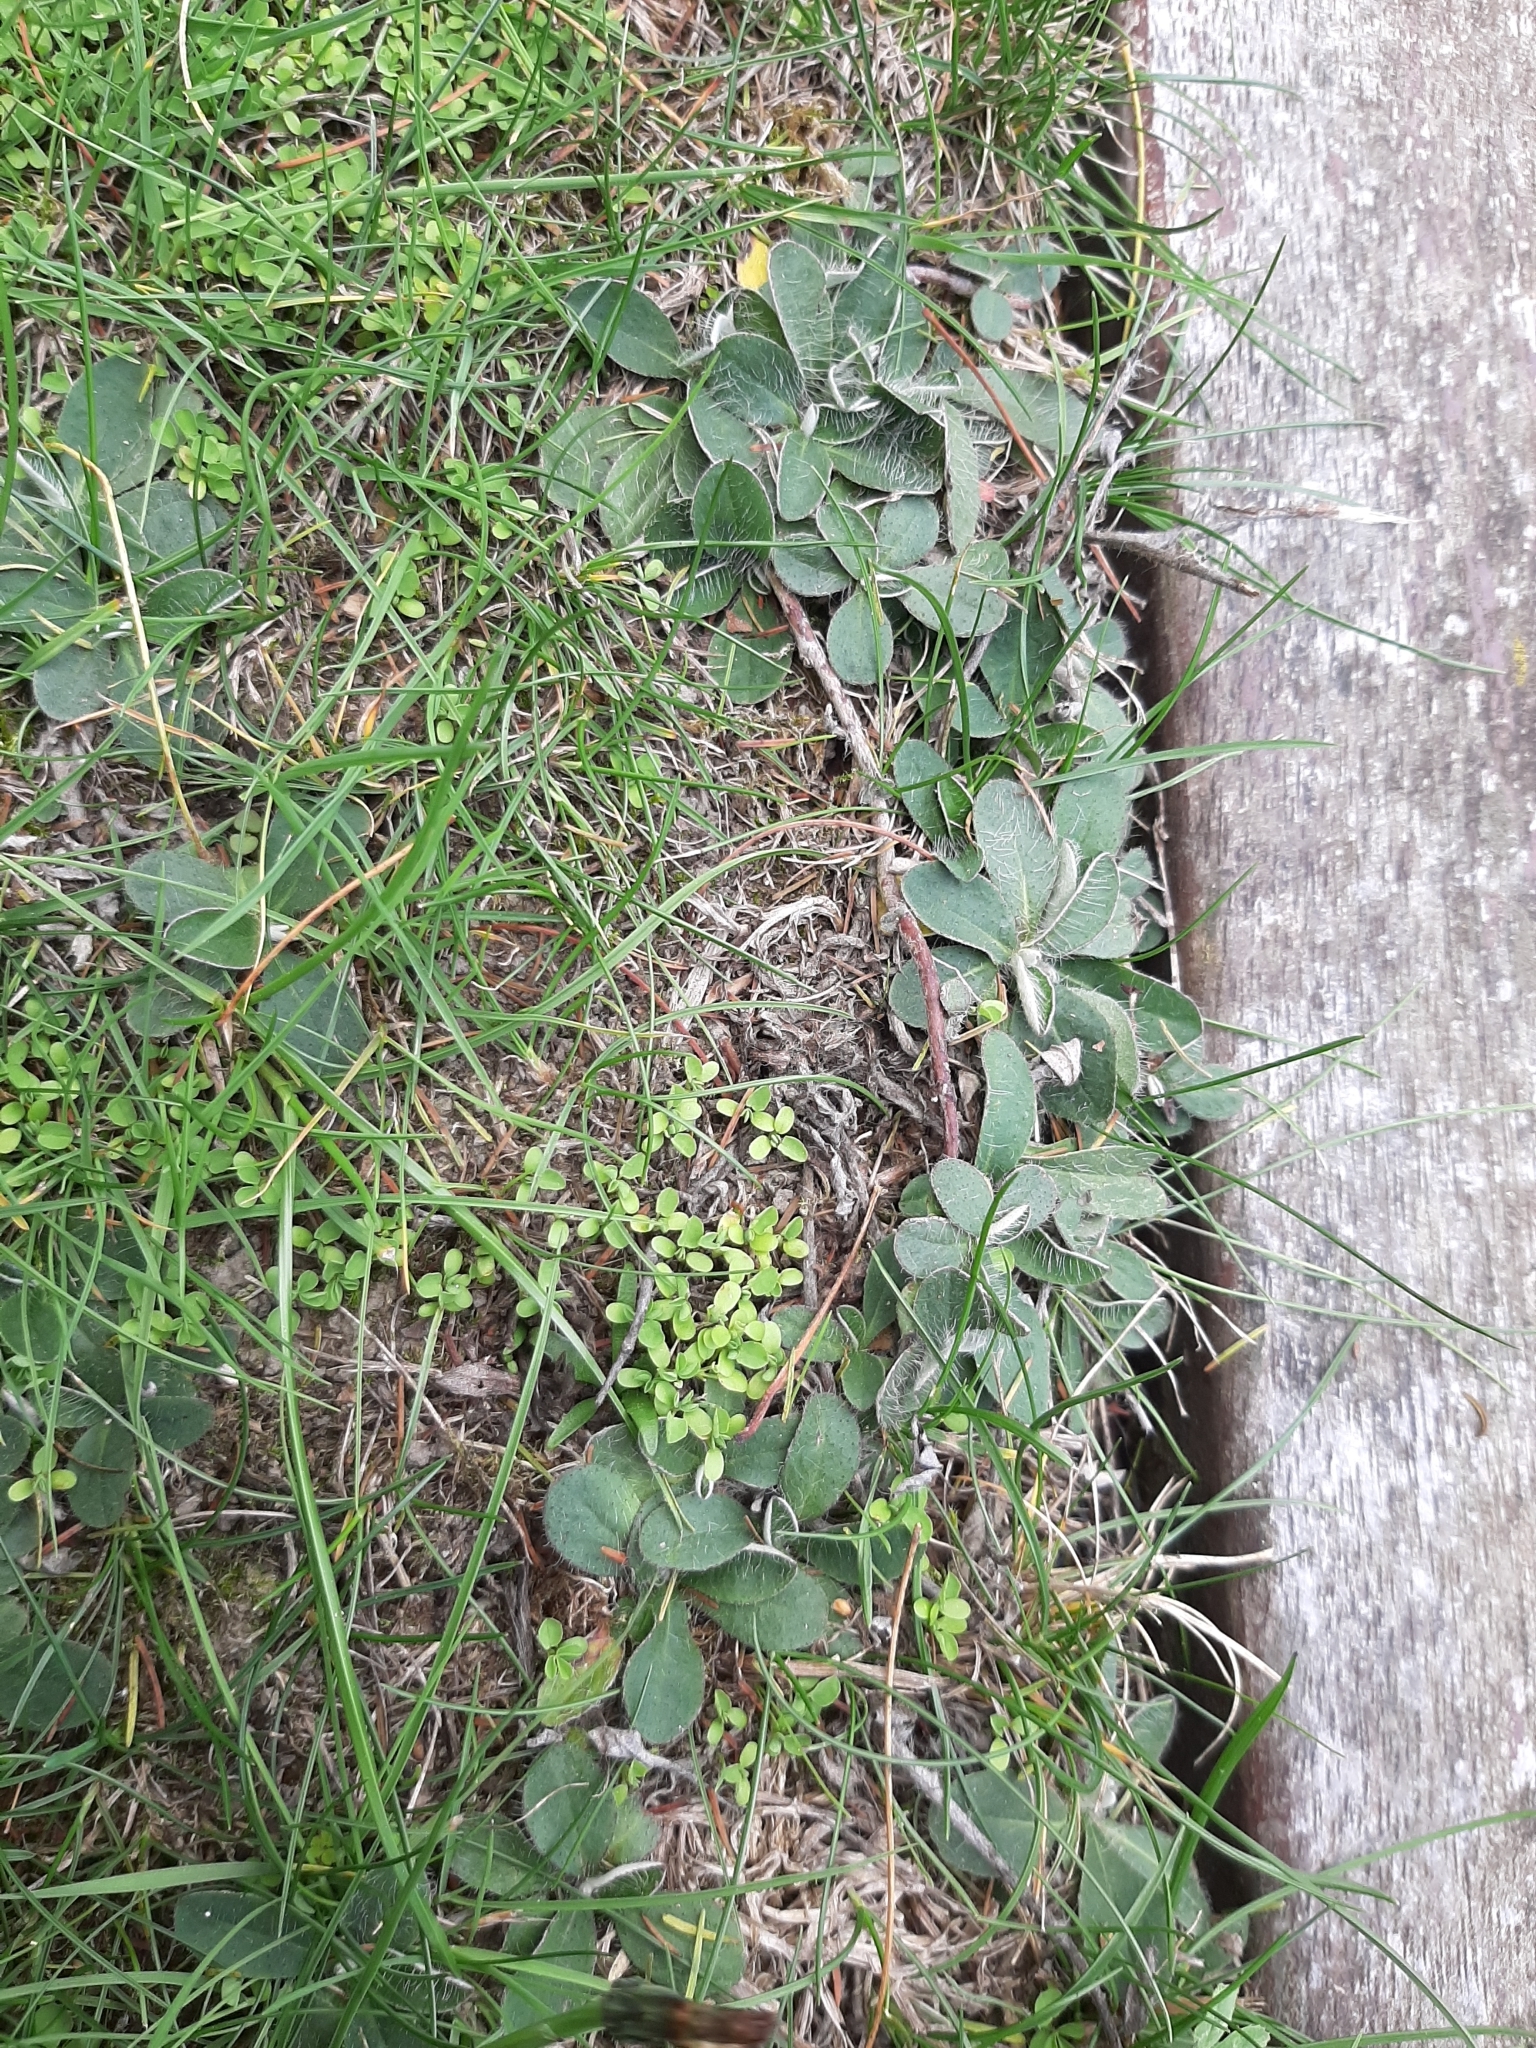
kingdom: Plantae
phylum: Tracheophyta
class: Magnoliopsida
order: Asterales
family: Asteraceae
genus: Pilosella
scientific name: Pilosella officinarum
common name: Mouse-ear hawkweed
